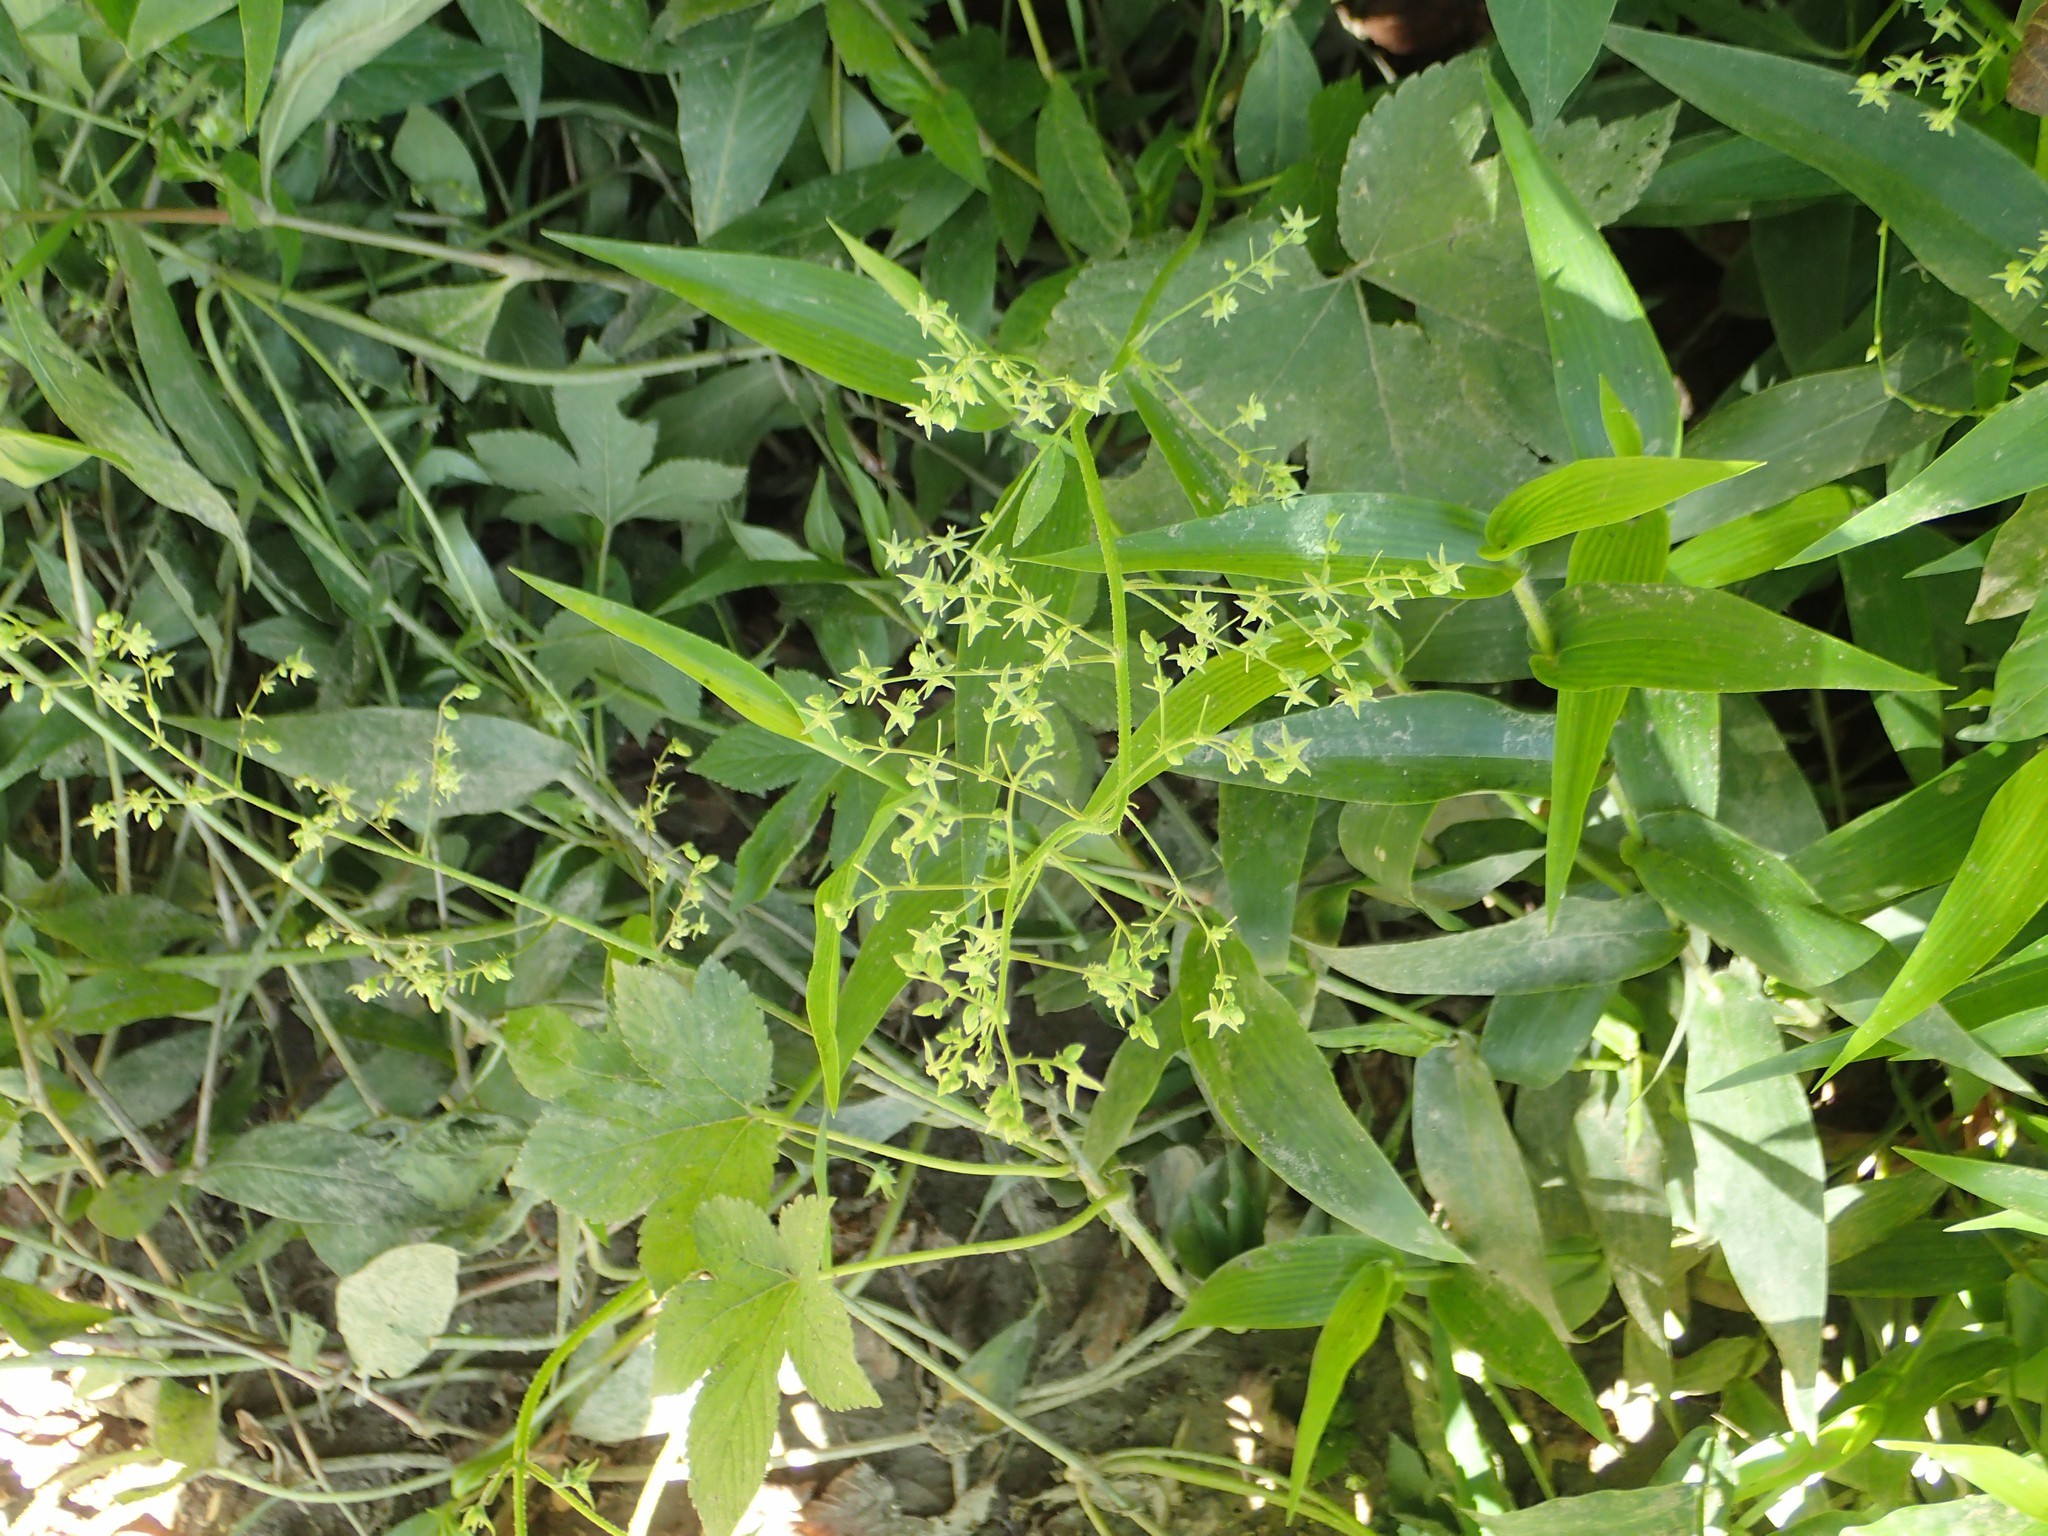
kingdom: Plantae
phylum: Tracheophyta
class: Magnoliopsida
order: Rosales
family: Cannabaceae
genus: Humulus
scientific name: Humulus scandens
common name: Japanese hop
